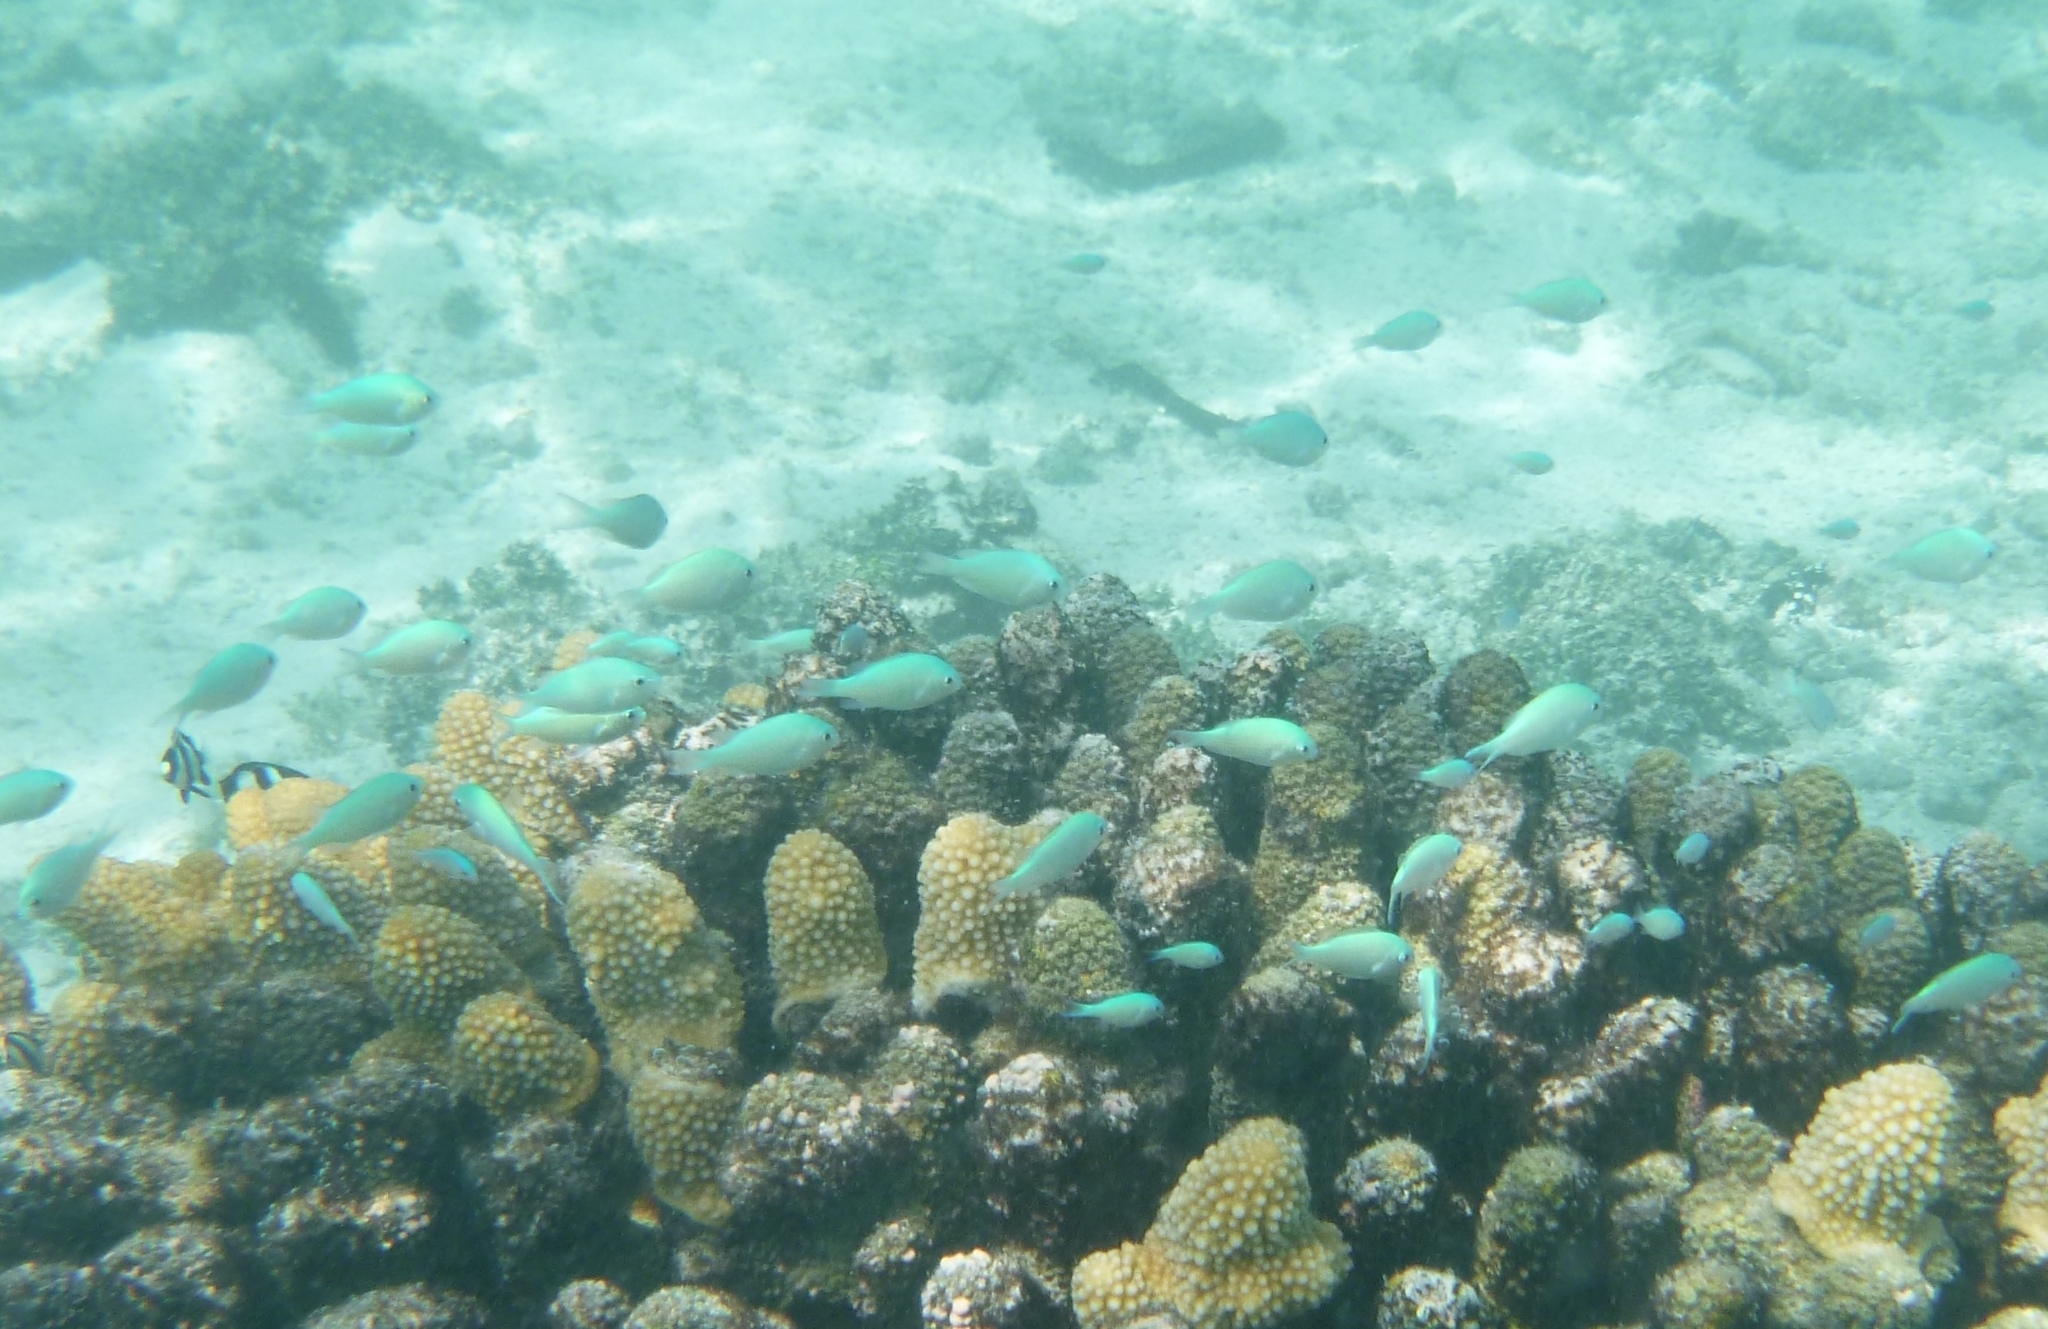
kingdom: Animalia
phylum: Chordata
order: Perciformes
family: Pomacentridae
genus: Chromis
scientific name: Chromis viridis
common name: Blue-green chromis
